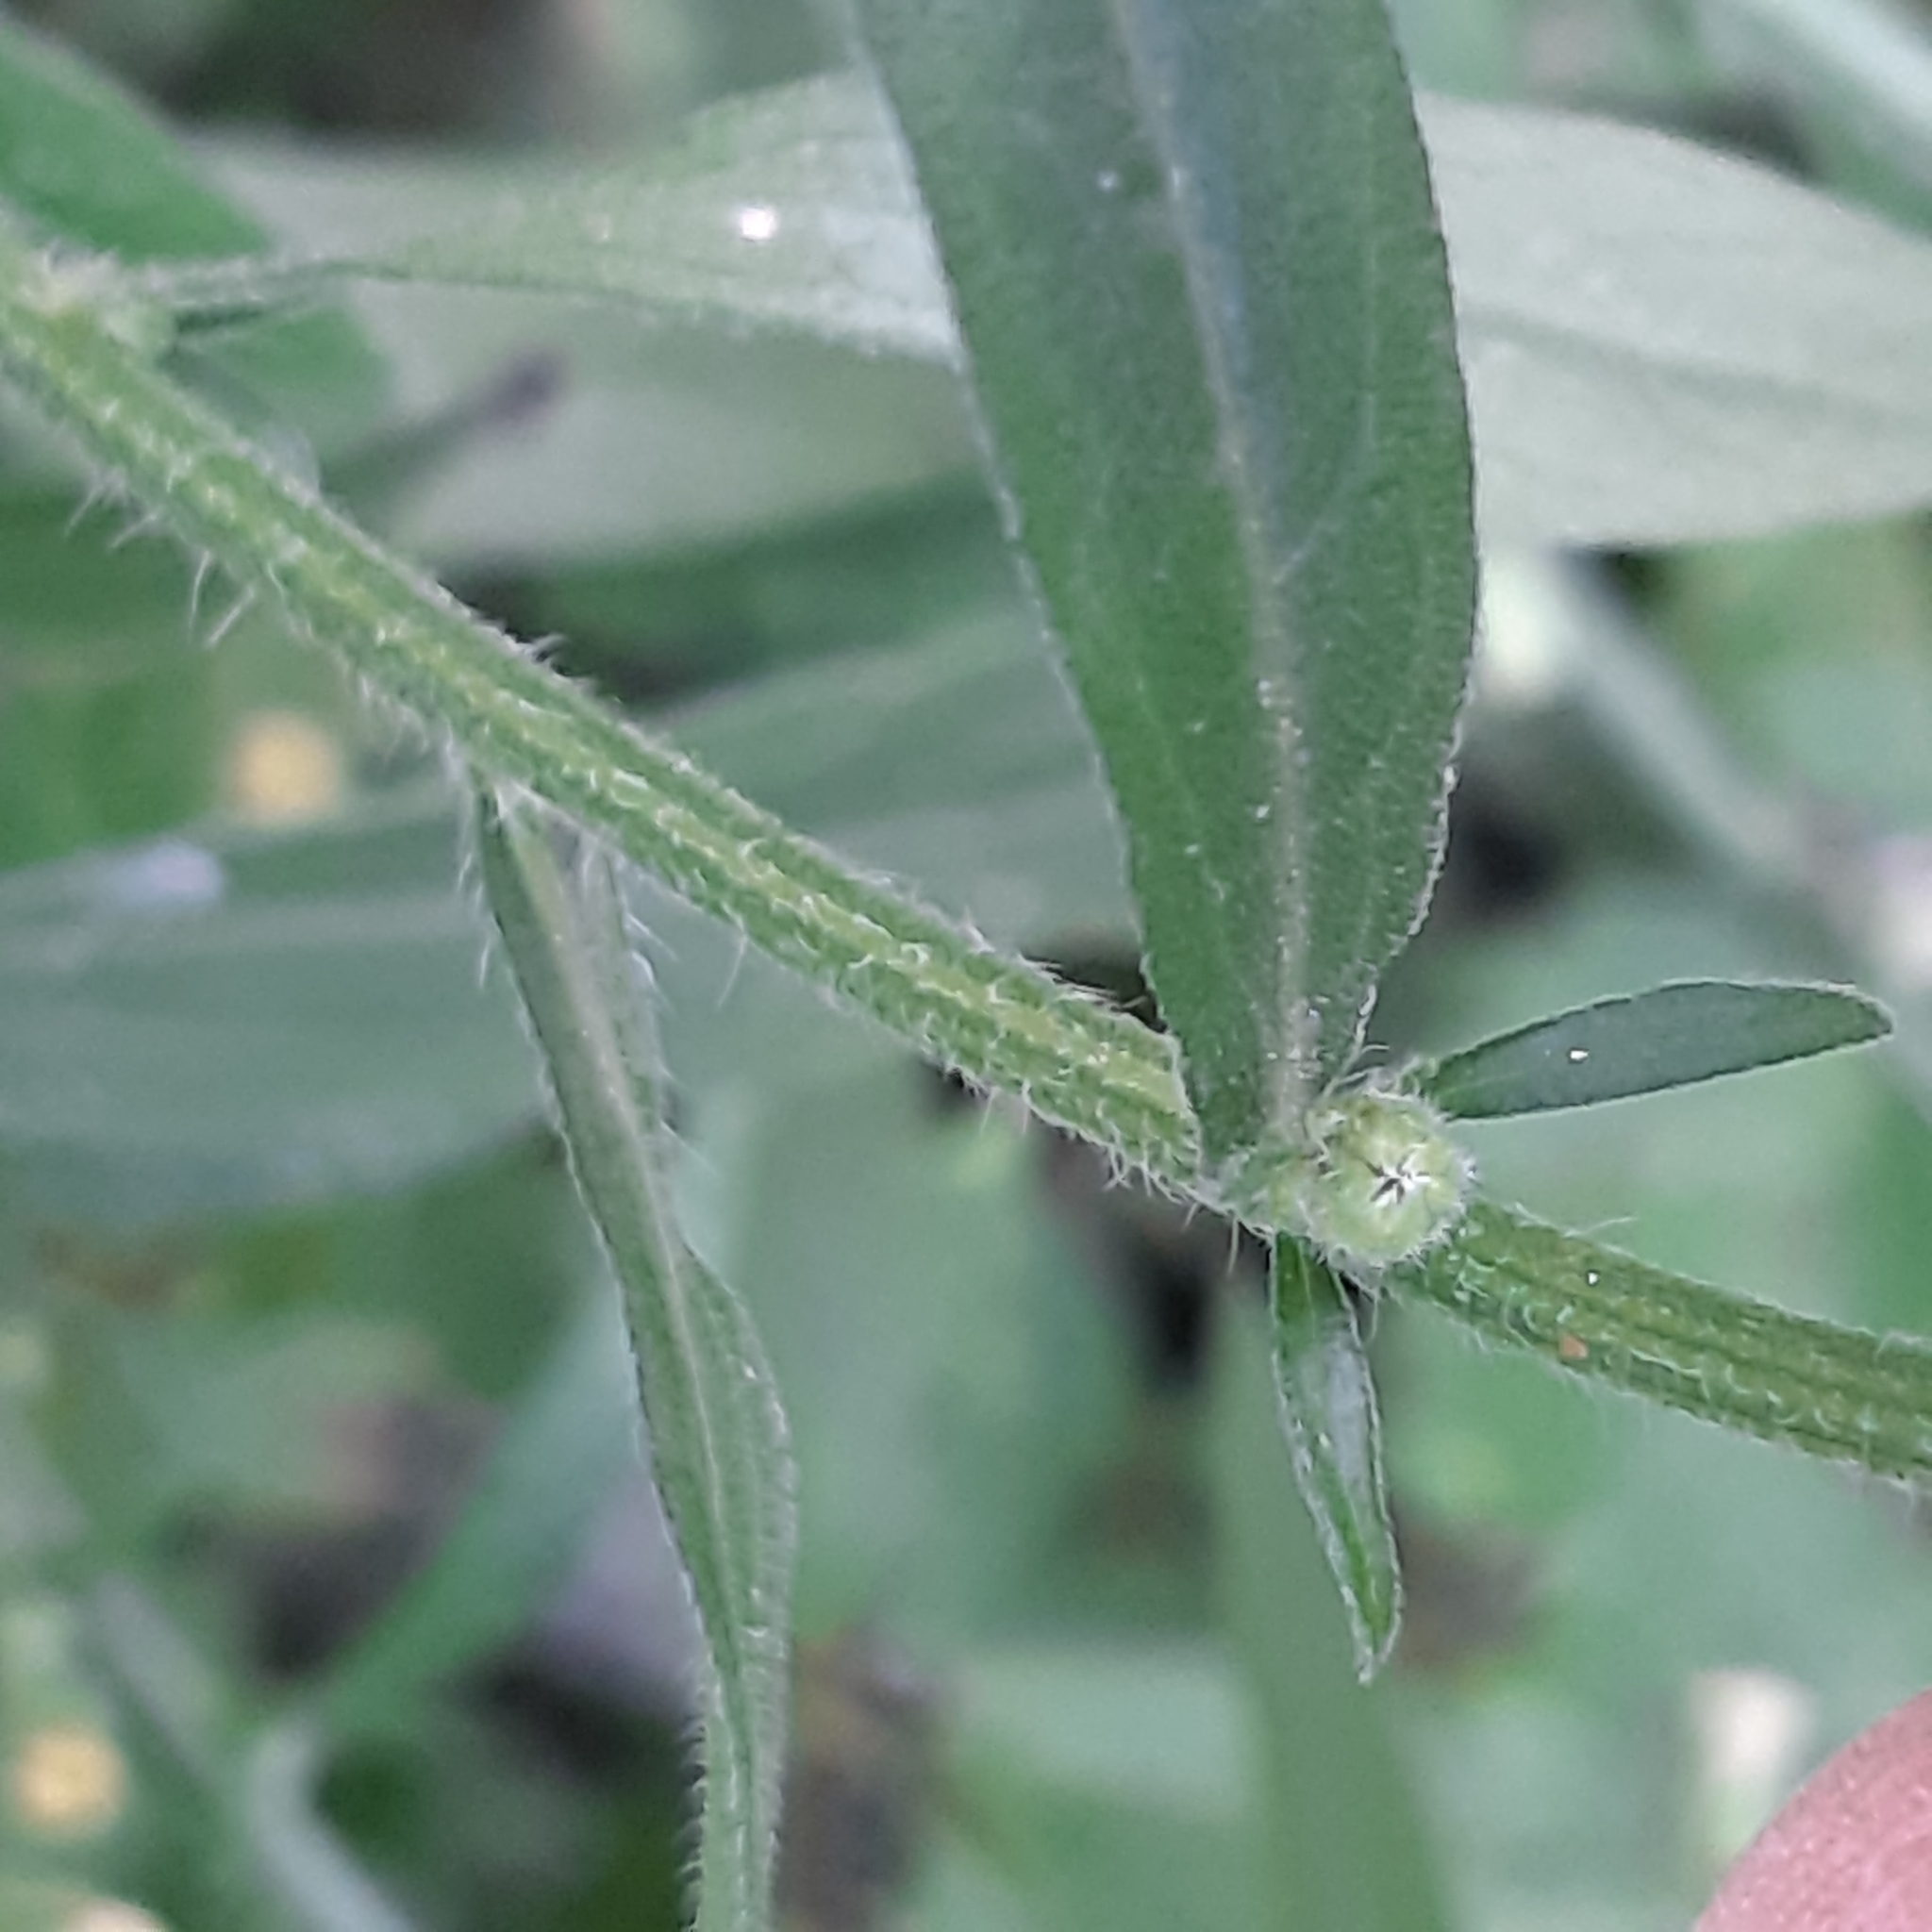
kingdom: Plantae
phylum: Tracheophyta
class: Magnoliopsida
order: Asterales
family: Asteraceae
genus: Erigeron
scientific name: Erigeron sumatrensis
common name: Daisy
